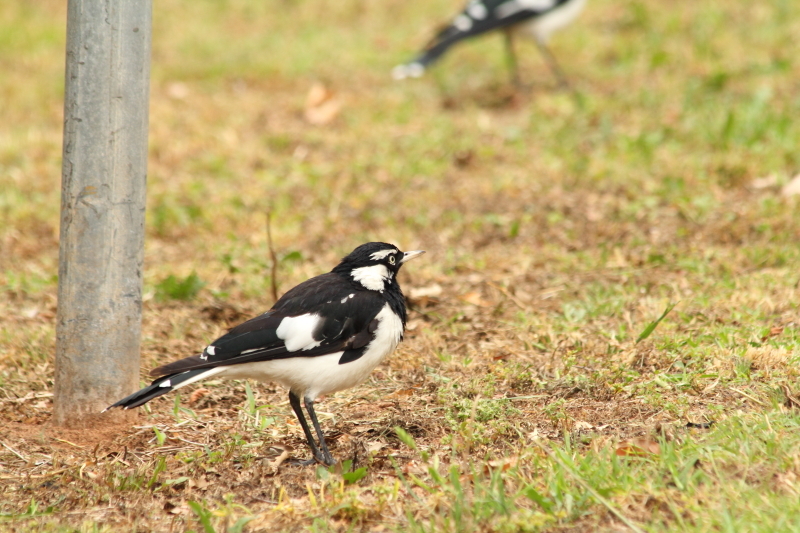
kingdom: Animalia
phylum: Chordata
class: Aves
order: Passeriformes
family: Monarchidae
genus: Grallina
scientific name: Grallina cyanoleuca
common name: Magpie-lark
